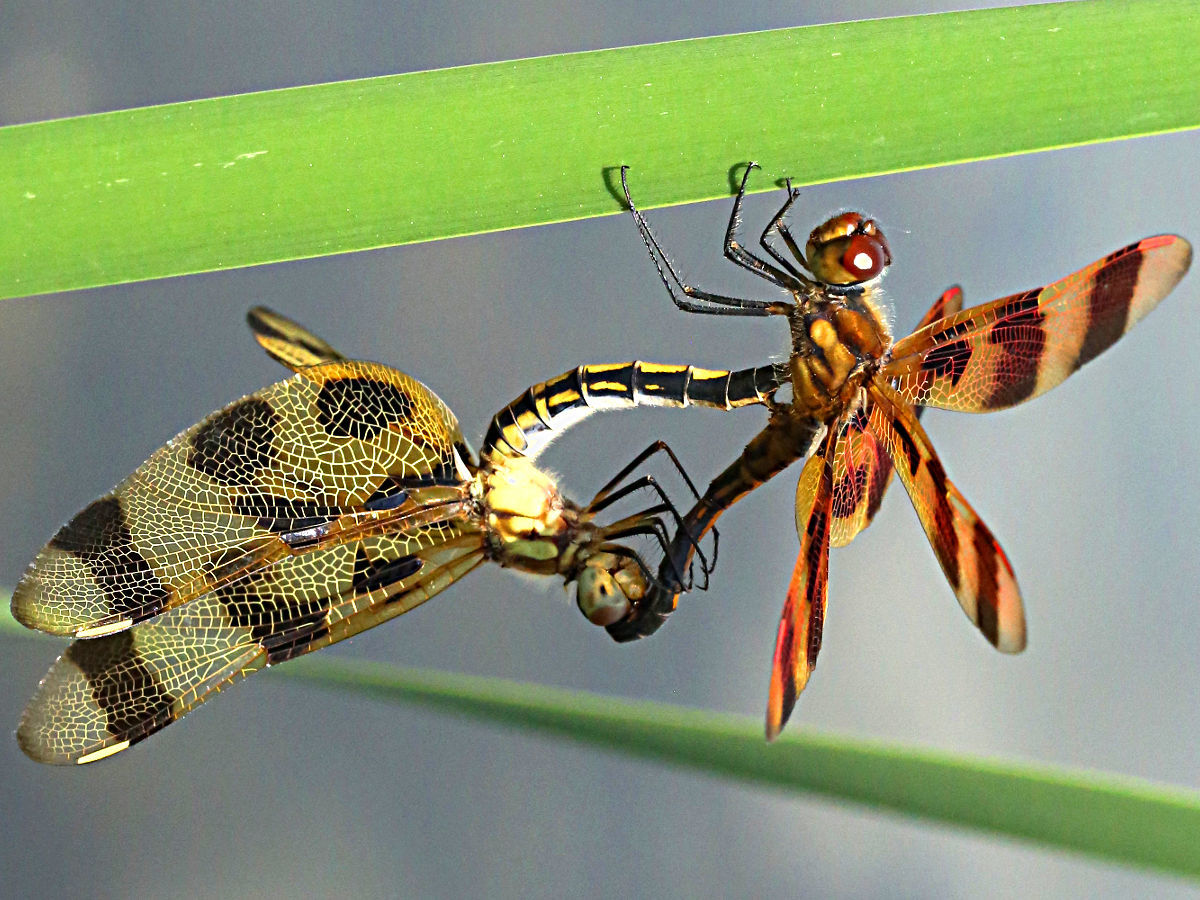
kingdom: Animalia
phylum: Arthropoda
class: Insecta
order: Odonata
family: Libellulidae
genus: Celithemis
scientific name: Celithemis eponina
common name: Halloween pennant
